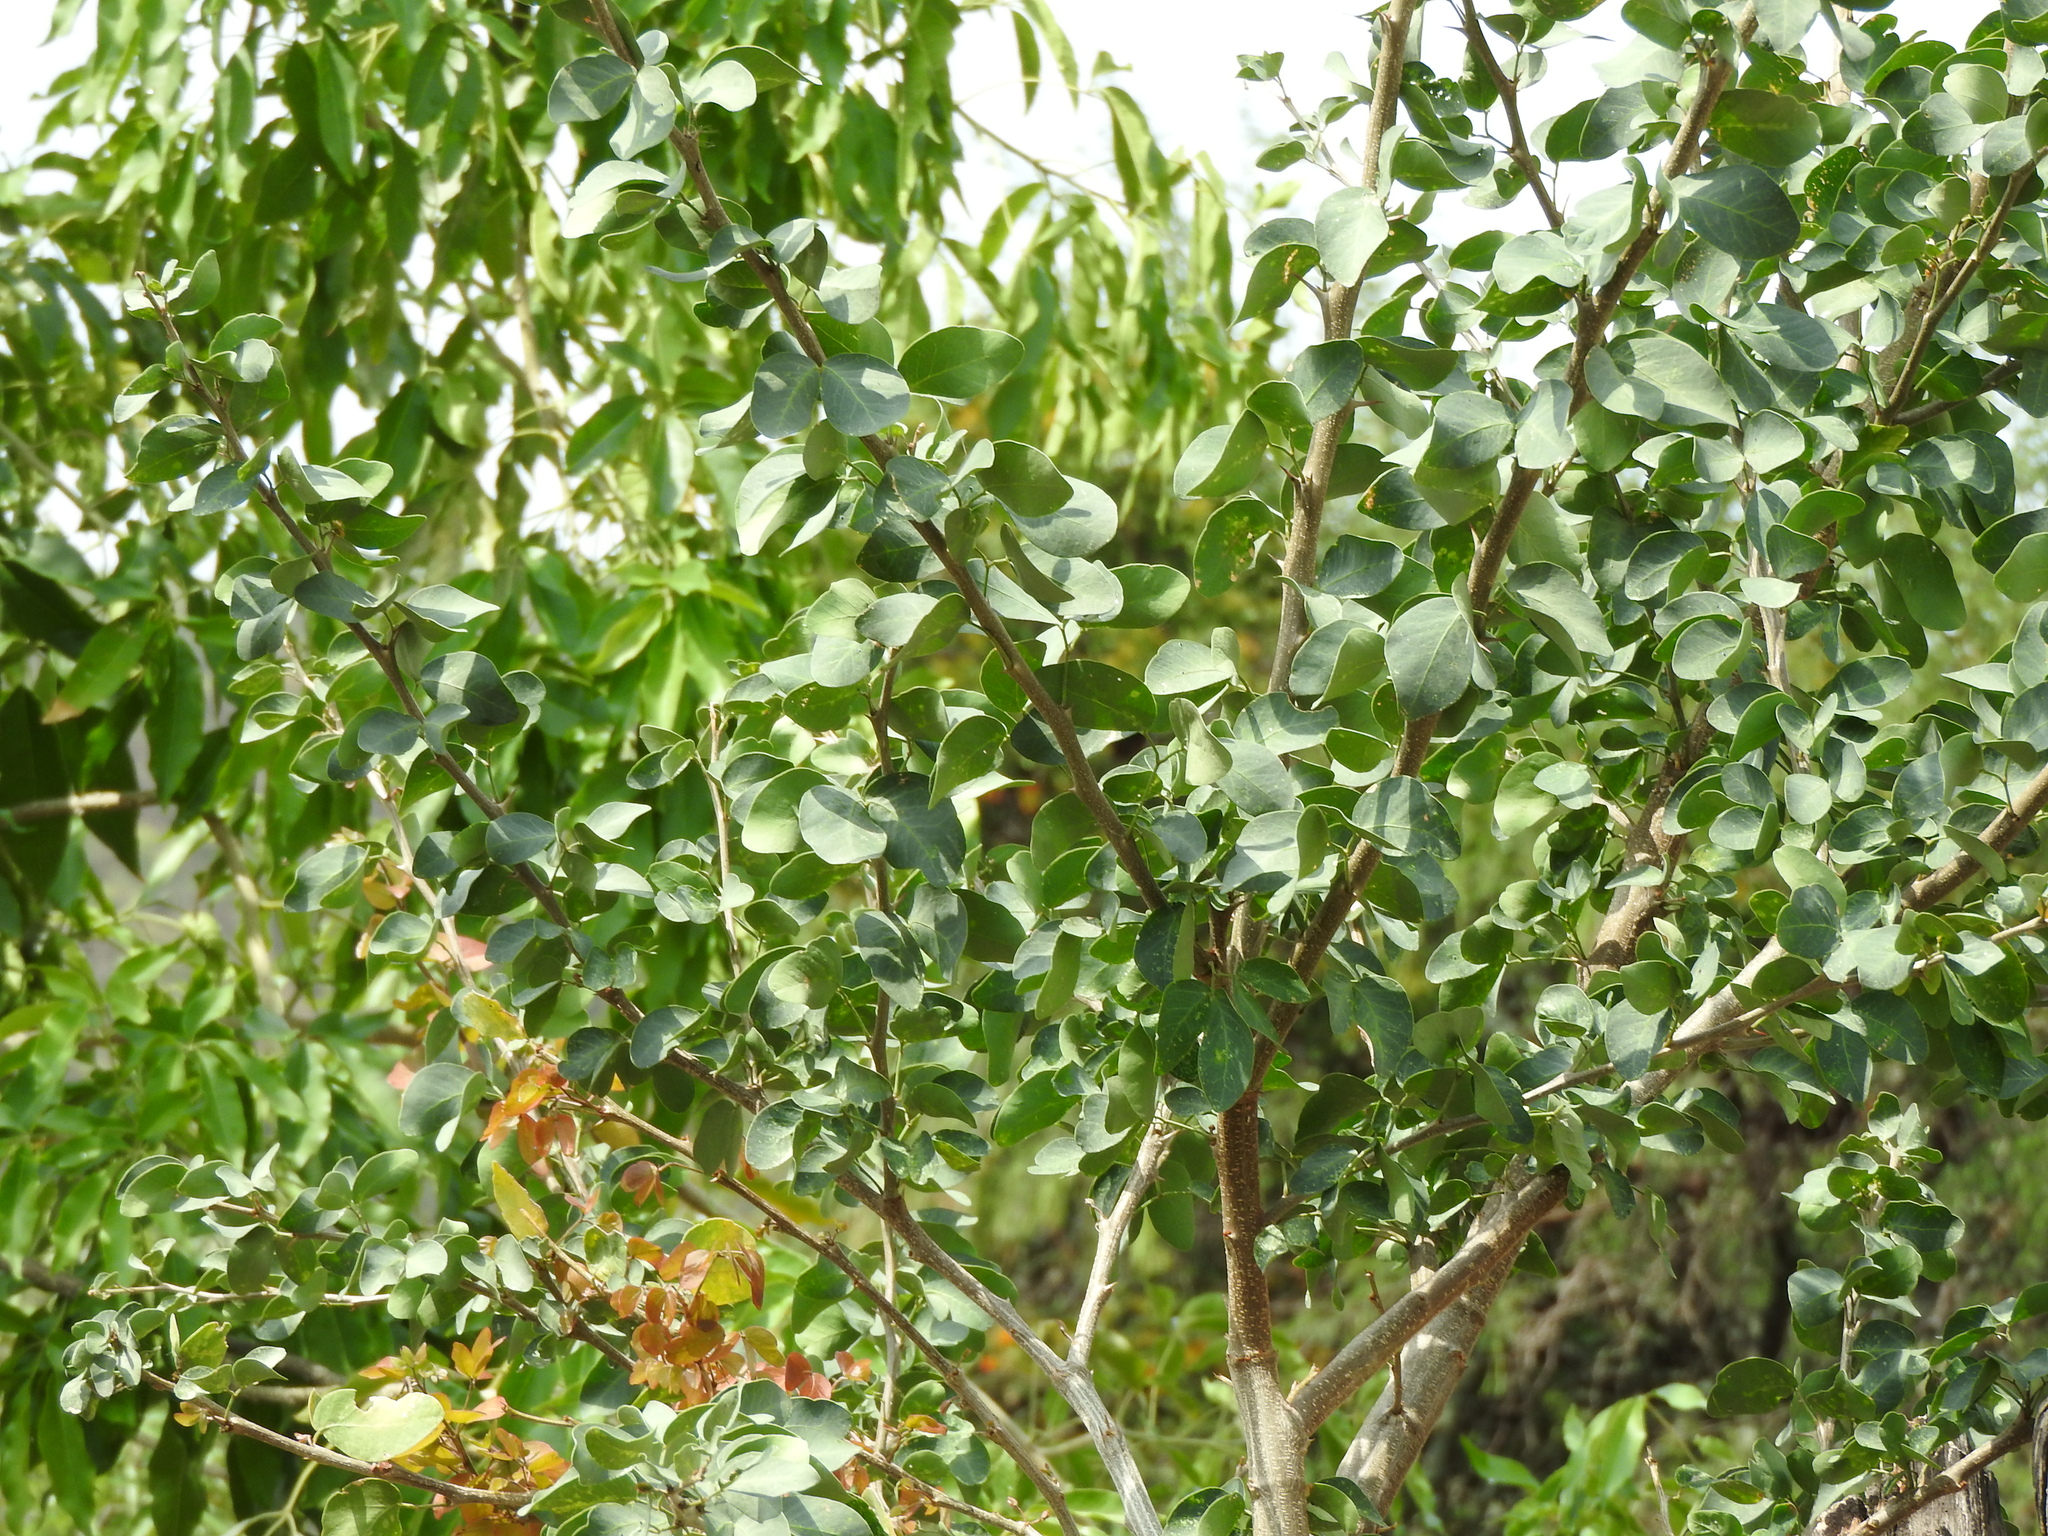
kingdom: Plantae
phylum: Tracheophyta
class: Magnoliopsida
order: Fabales
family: Fabaceae
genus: Pithecellobium
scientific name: Pithecellobium dulce
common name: Monkeypod
